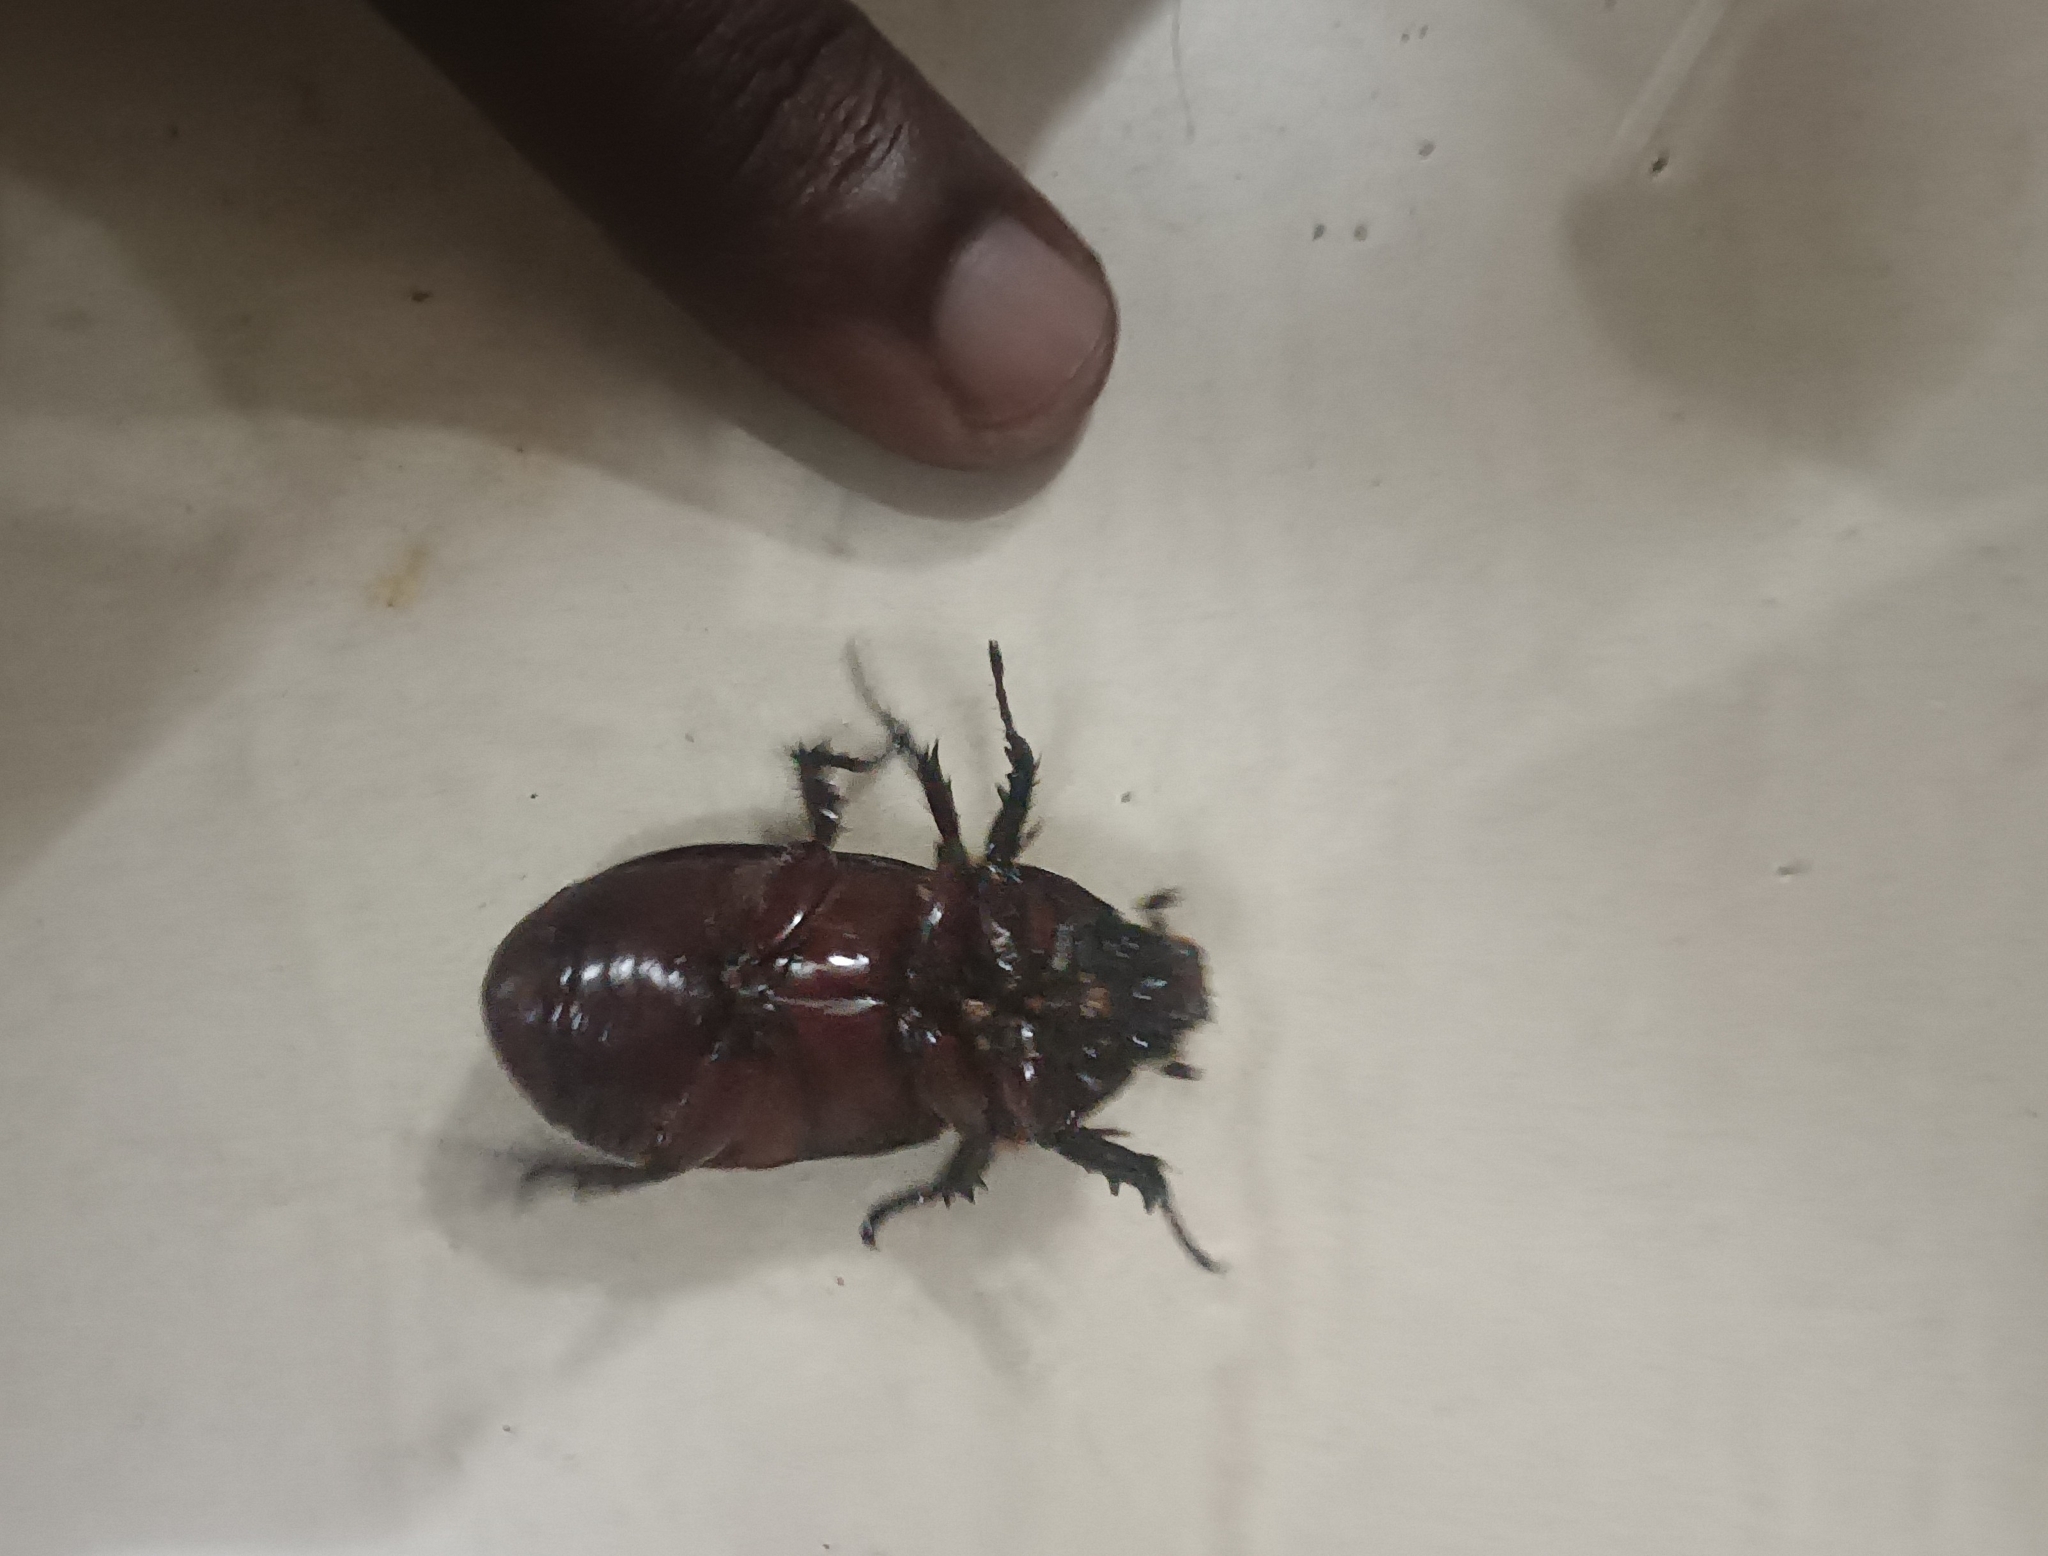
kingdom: Animalia
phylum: Arthropoda
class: Insecta
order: Coleoptera
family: Scarabaeidae
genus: Oryctes
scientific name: Oryctes rhinoceros
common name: Coconut rhinoceros beetle
